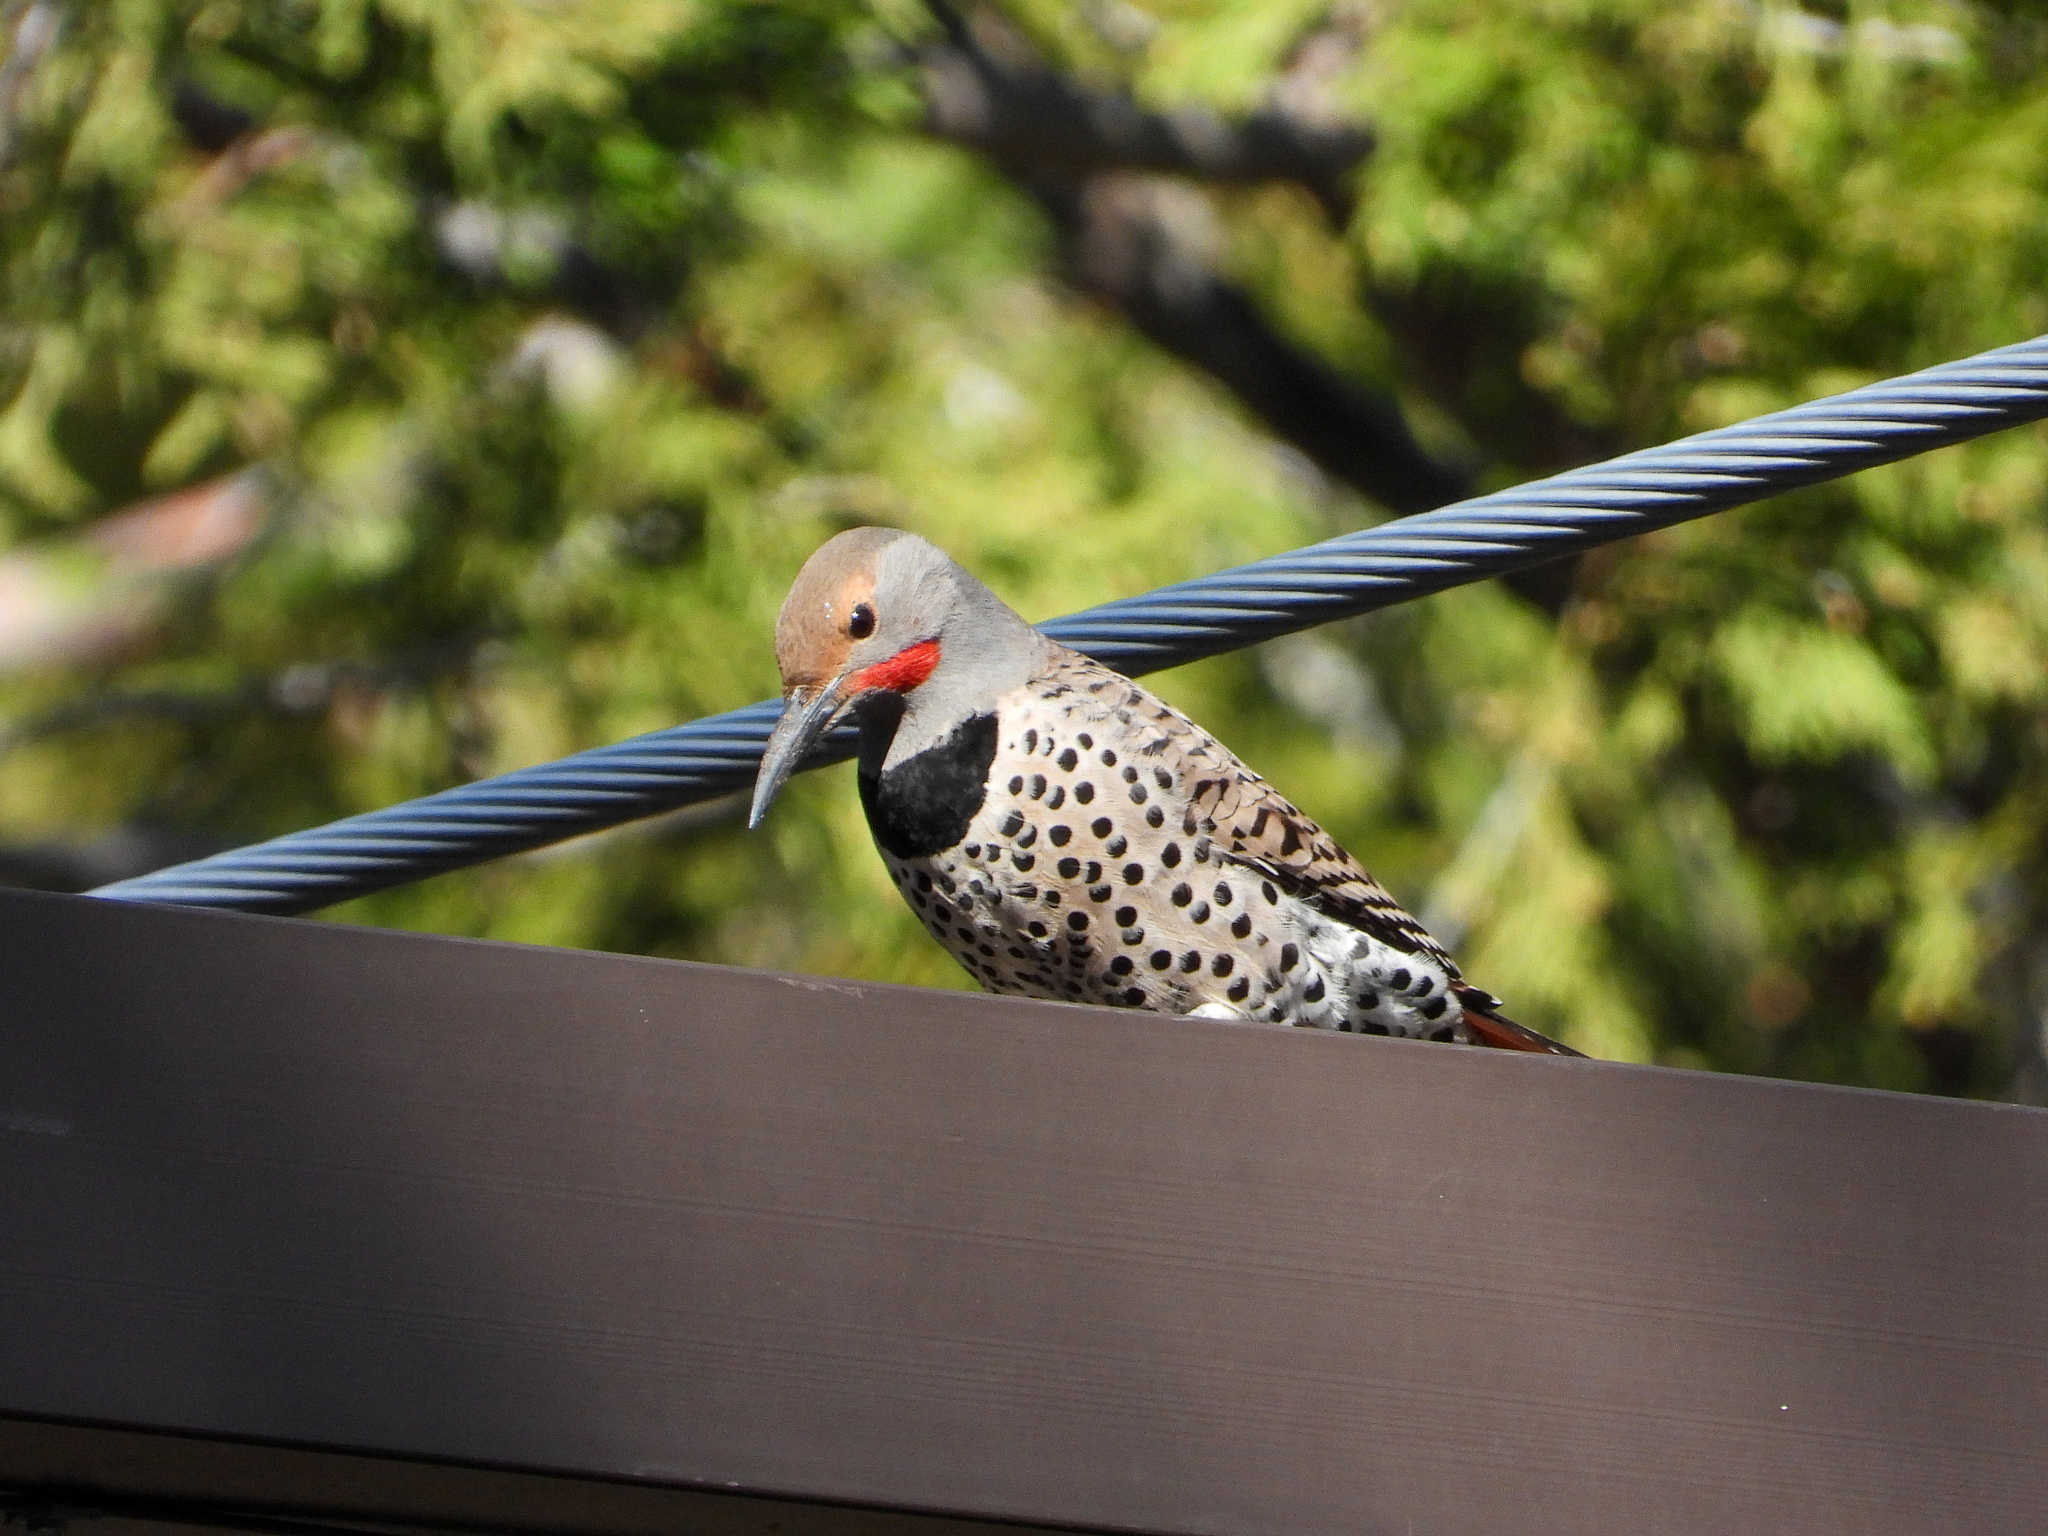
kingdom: Animalia
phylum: Chordata
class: Aves
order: Piciformes
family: Picidae
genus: Colaptes
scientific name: Colaptes auratus
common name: Northern flicker
